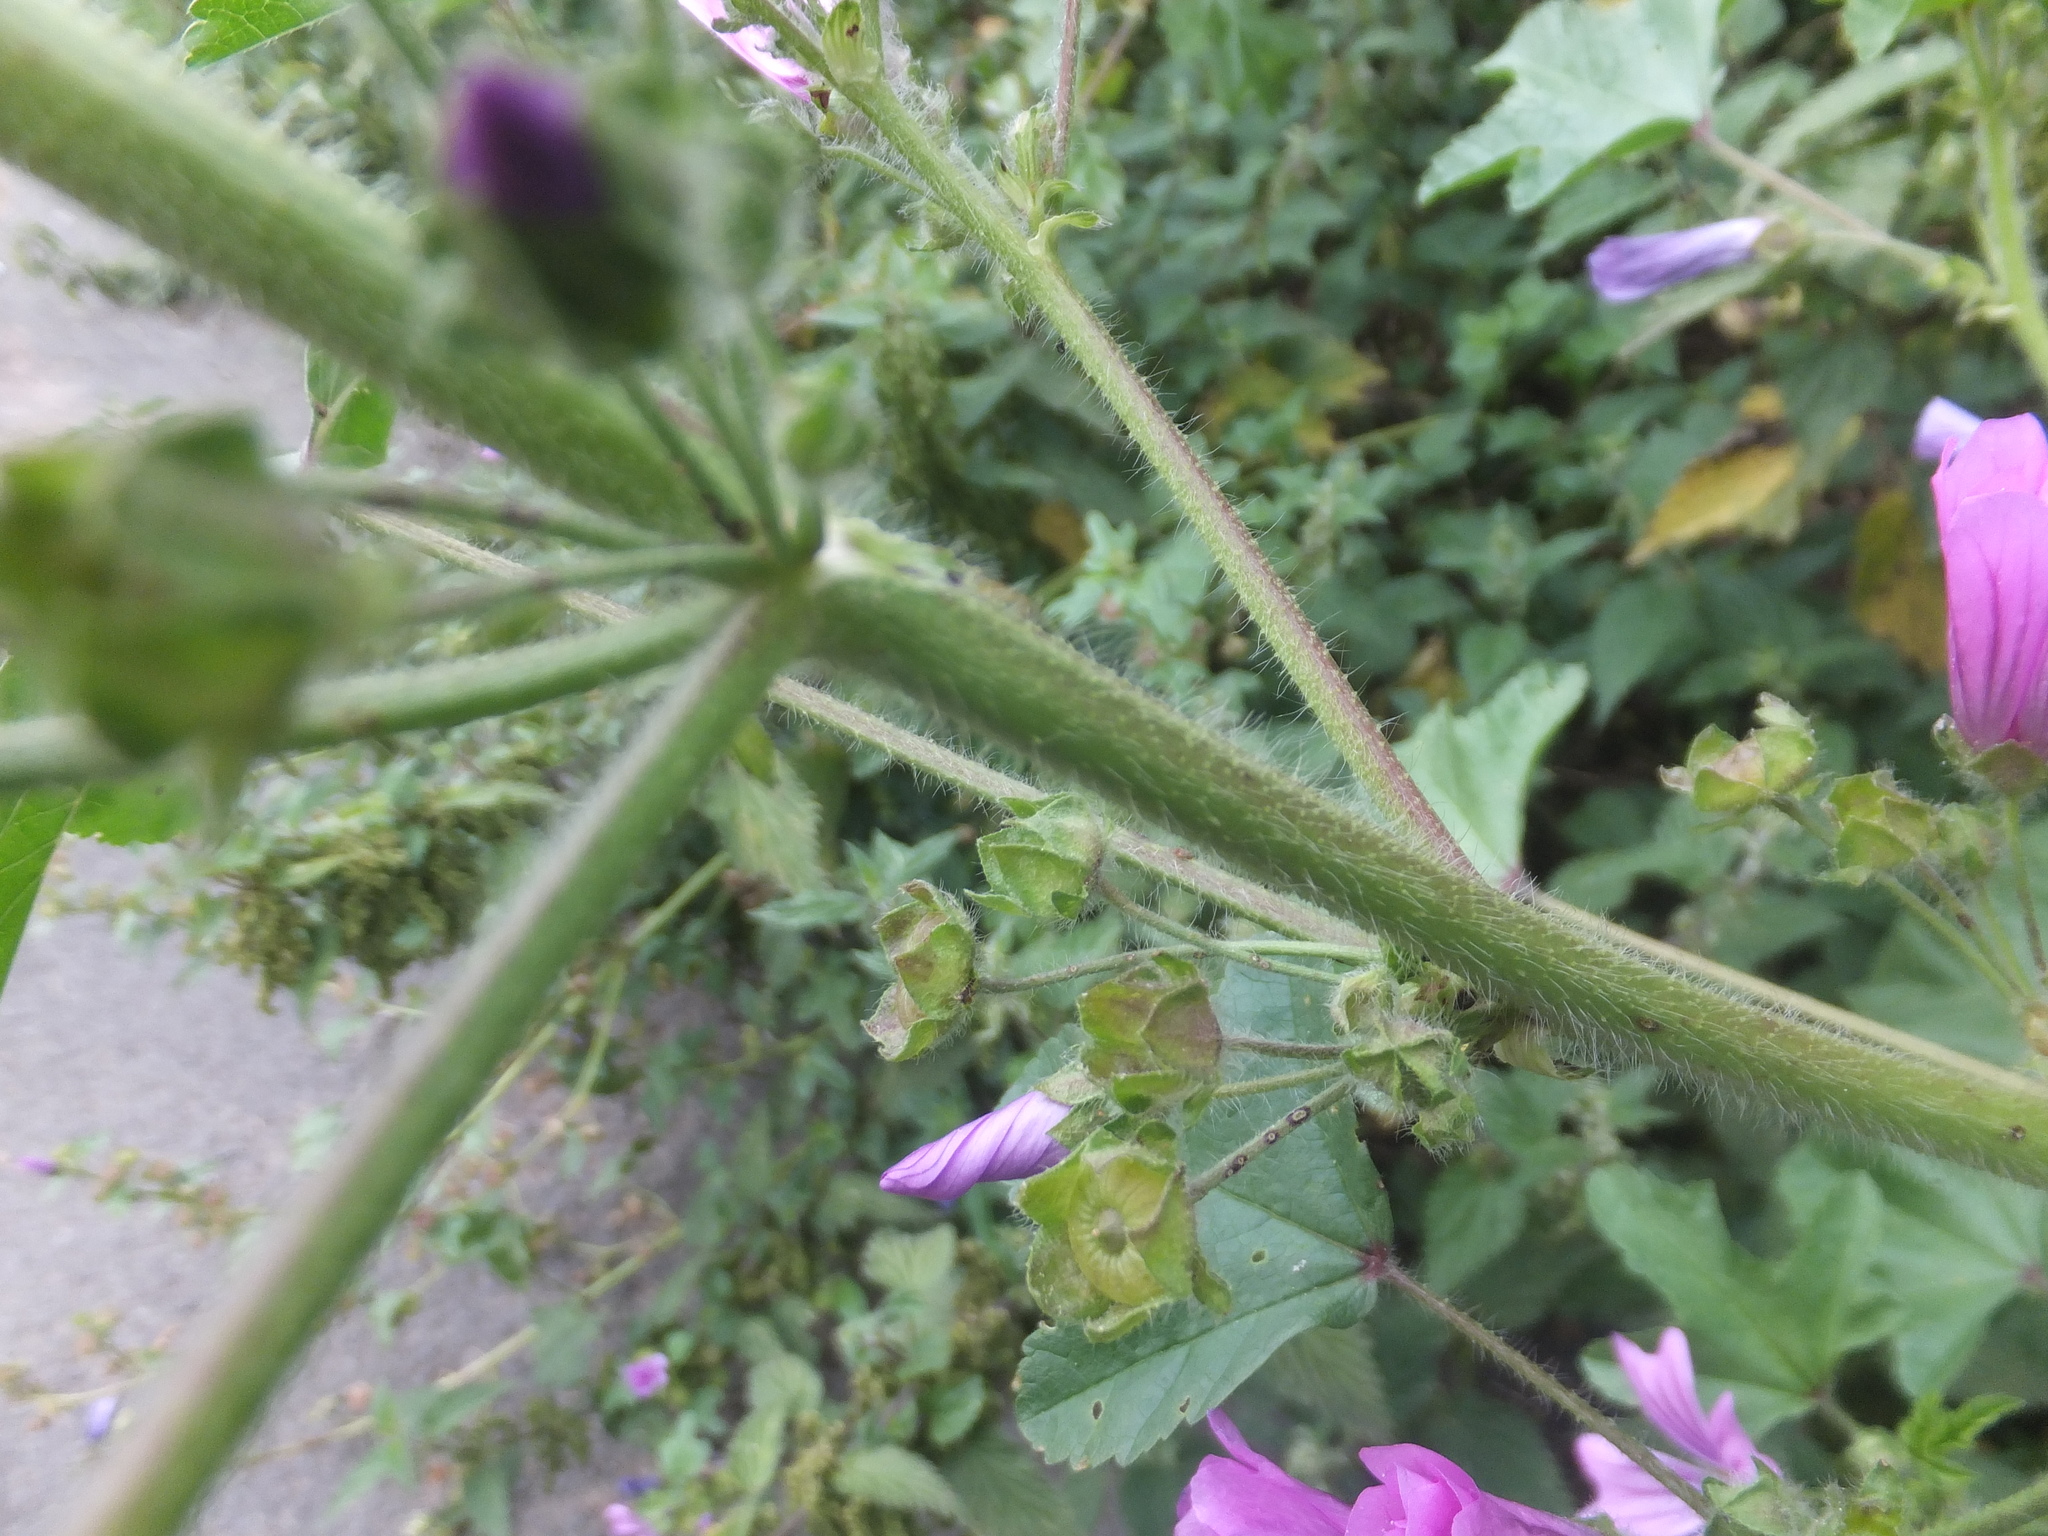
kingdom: Plantae
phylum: Tracheophyta
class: Magnoliopsida
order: Malvales
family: Malvaceae
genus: Malva
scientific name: Malva sylvestris
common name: Common mallow
